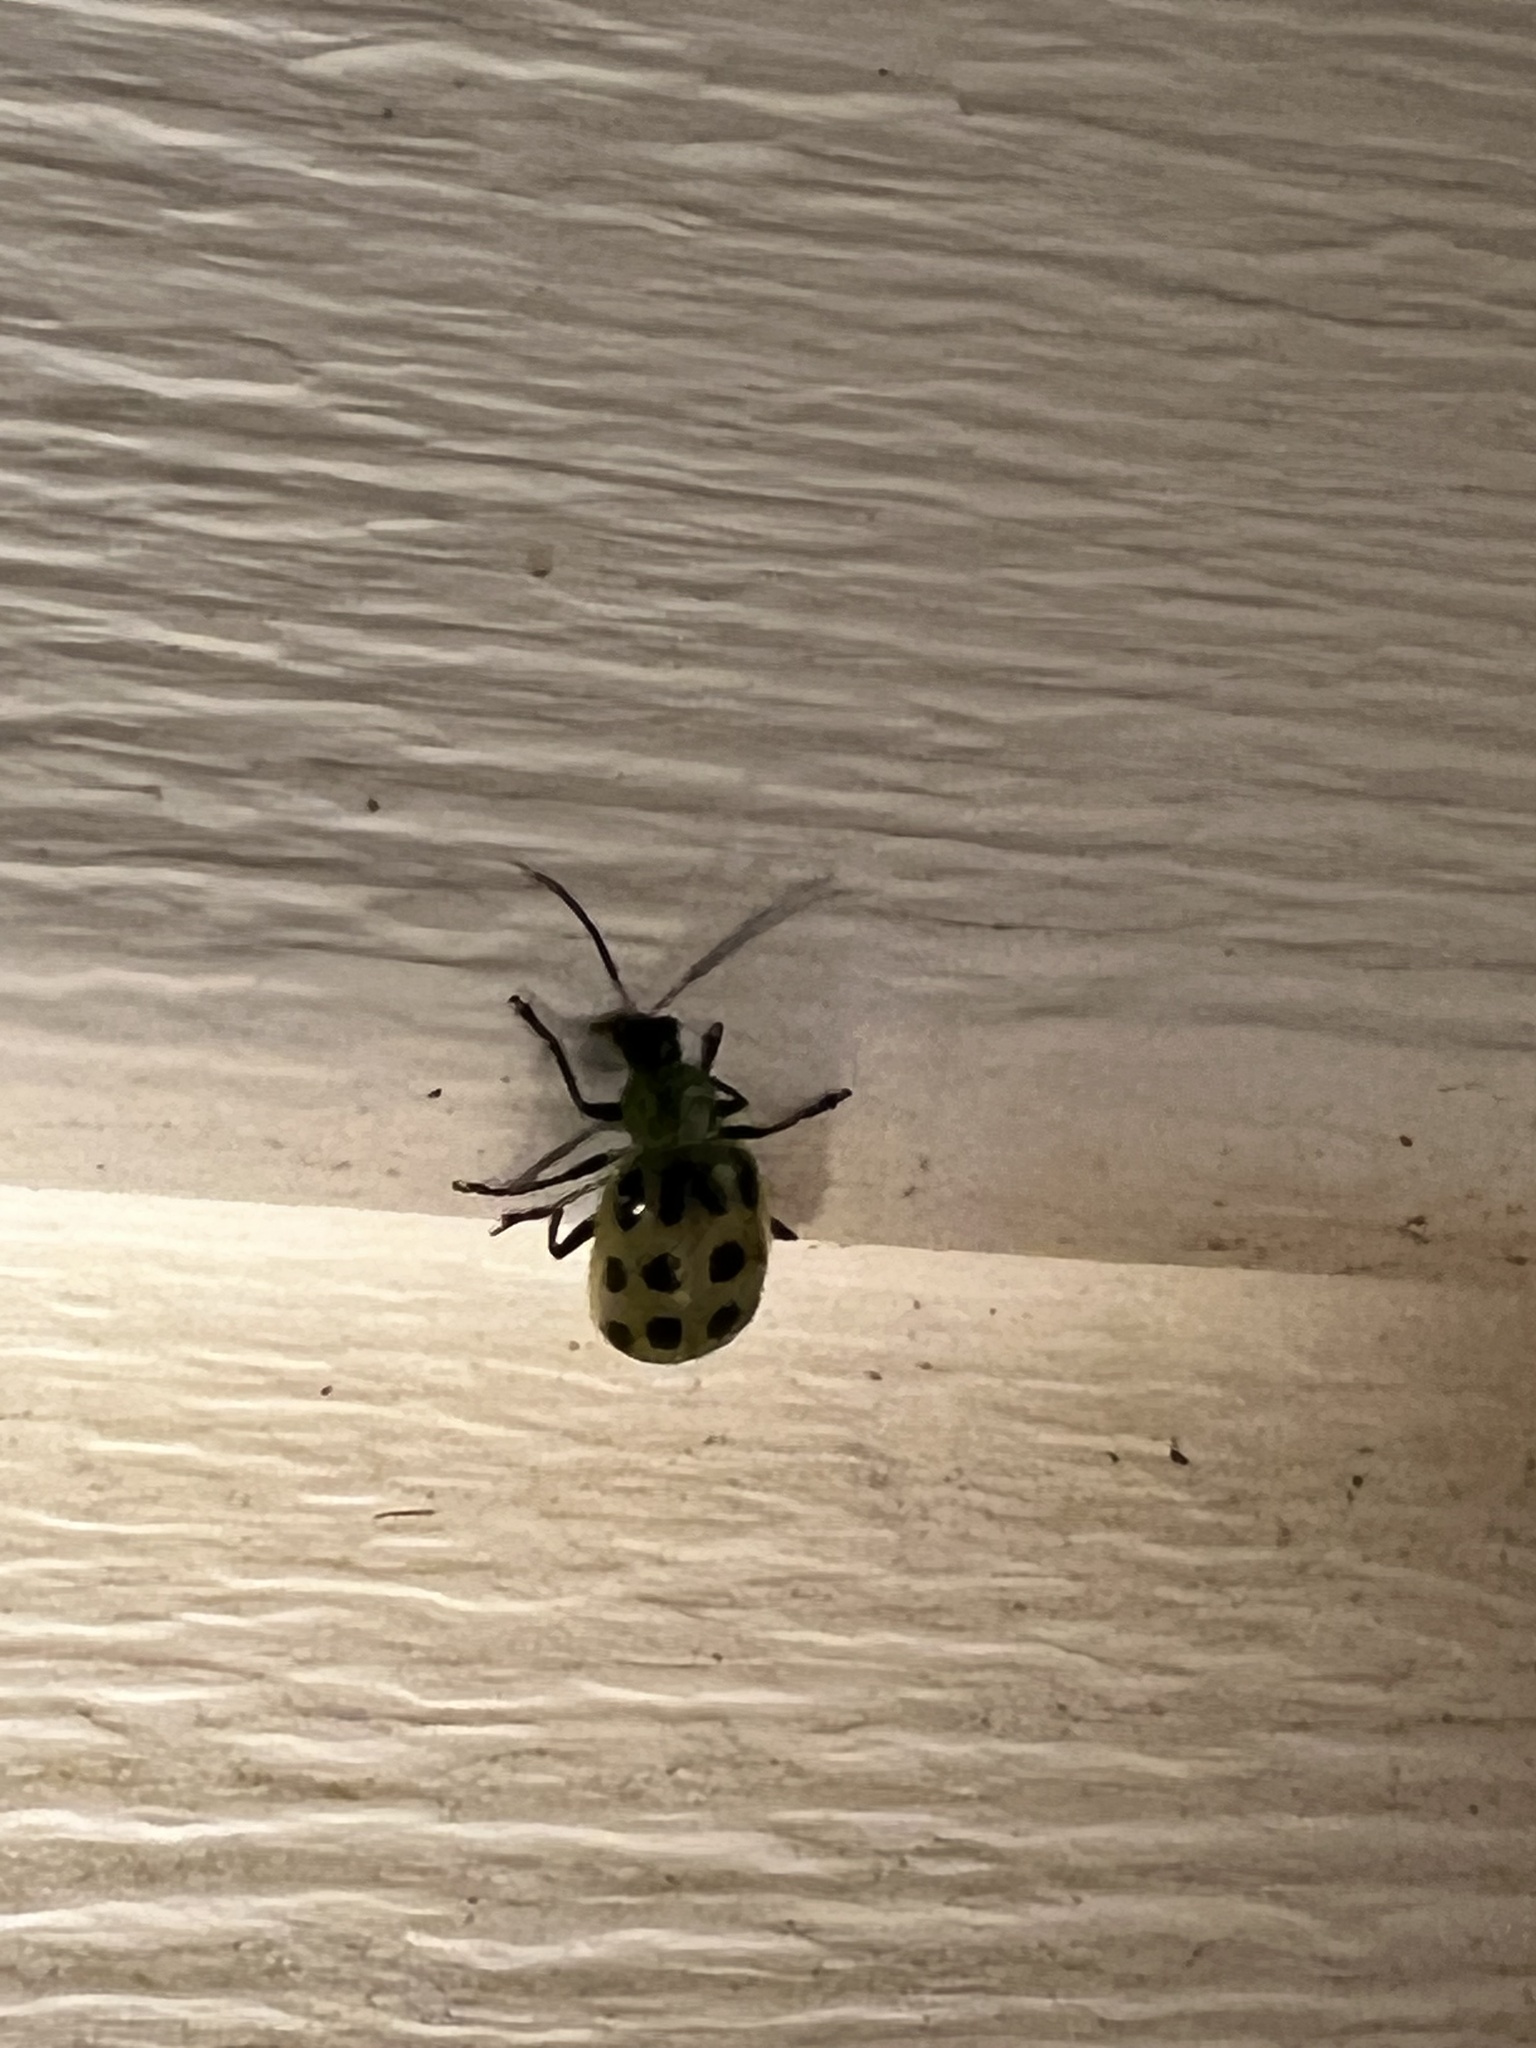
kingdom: Animalia
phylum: Arthropoda
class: Insecta
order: Coleoptera
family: Chrysomelidae
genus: Diabrotica
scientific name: Diabrotica undecimpunctata
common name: Spotted cucumber beetle
